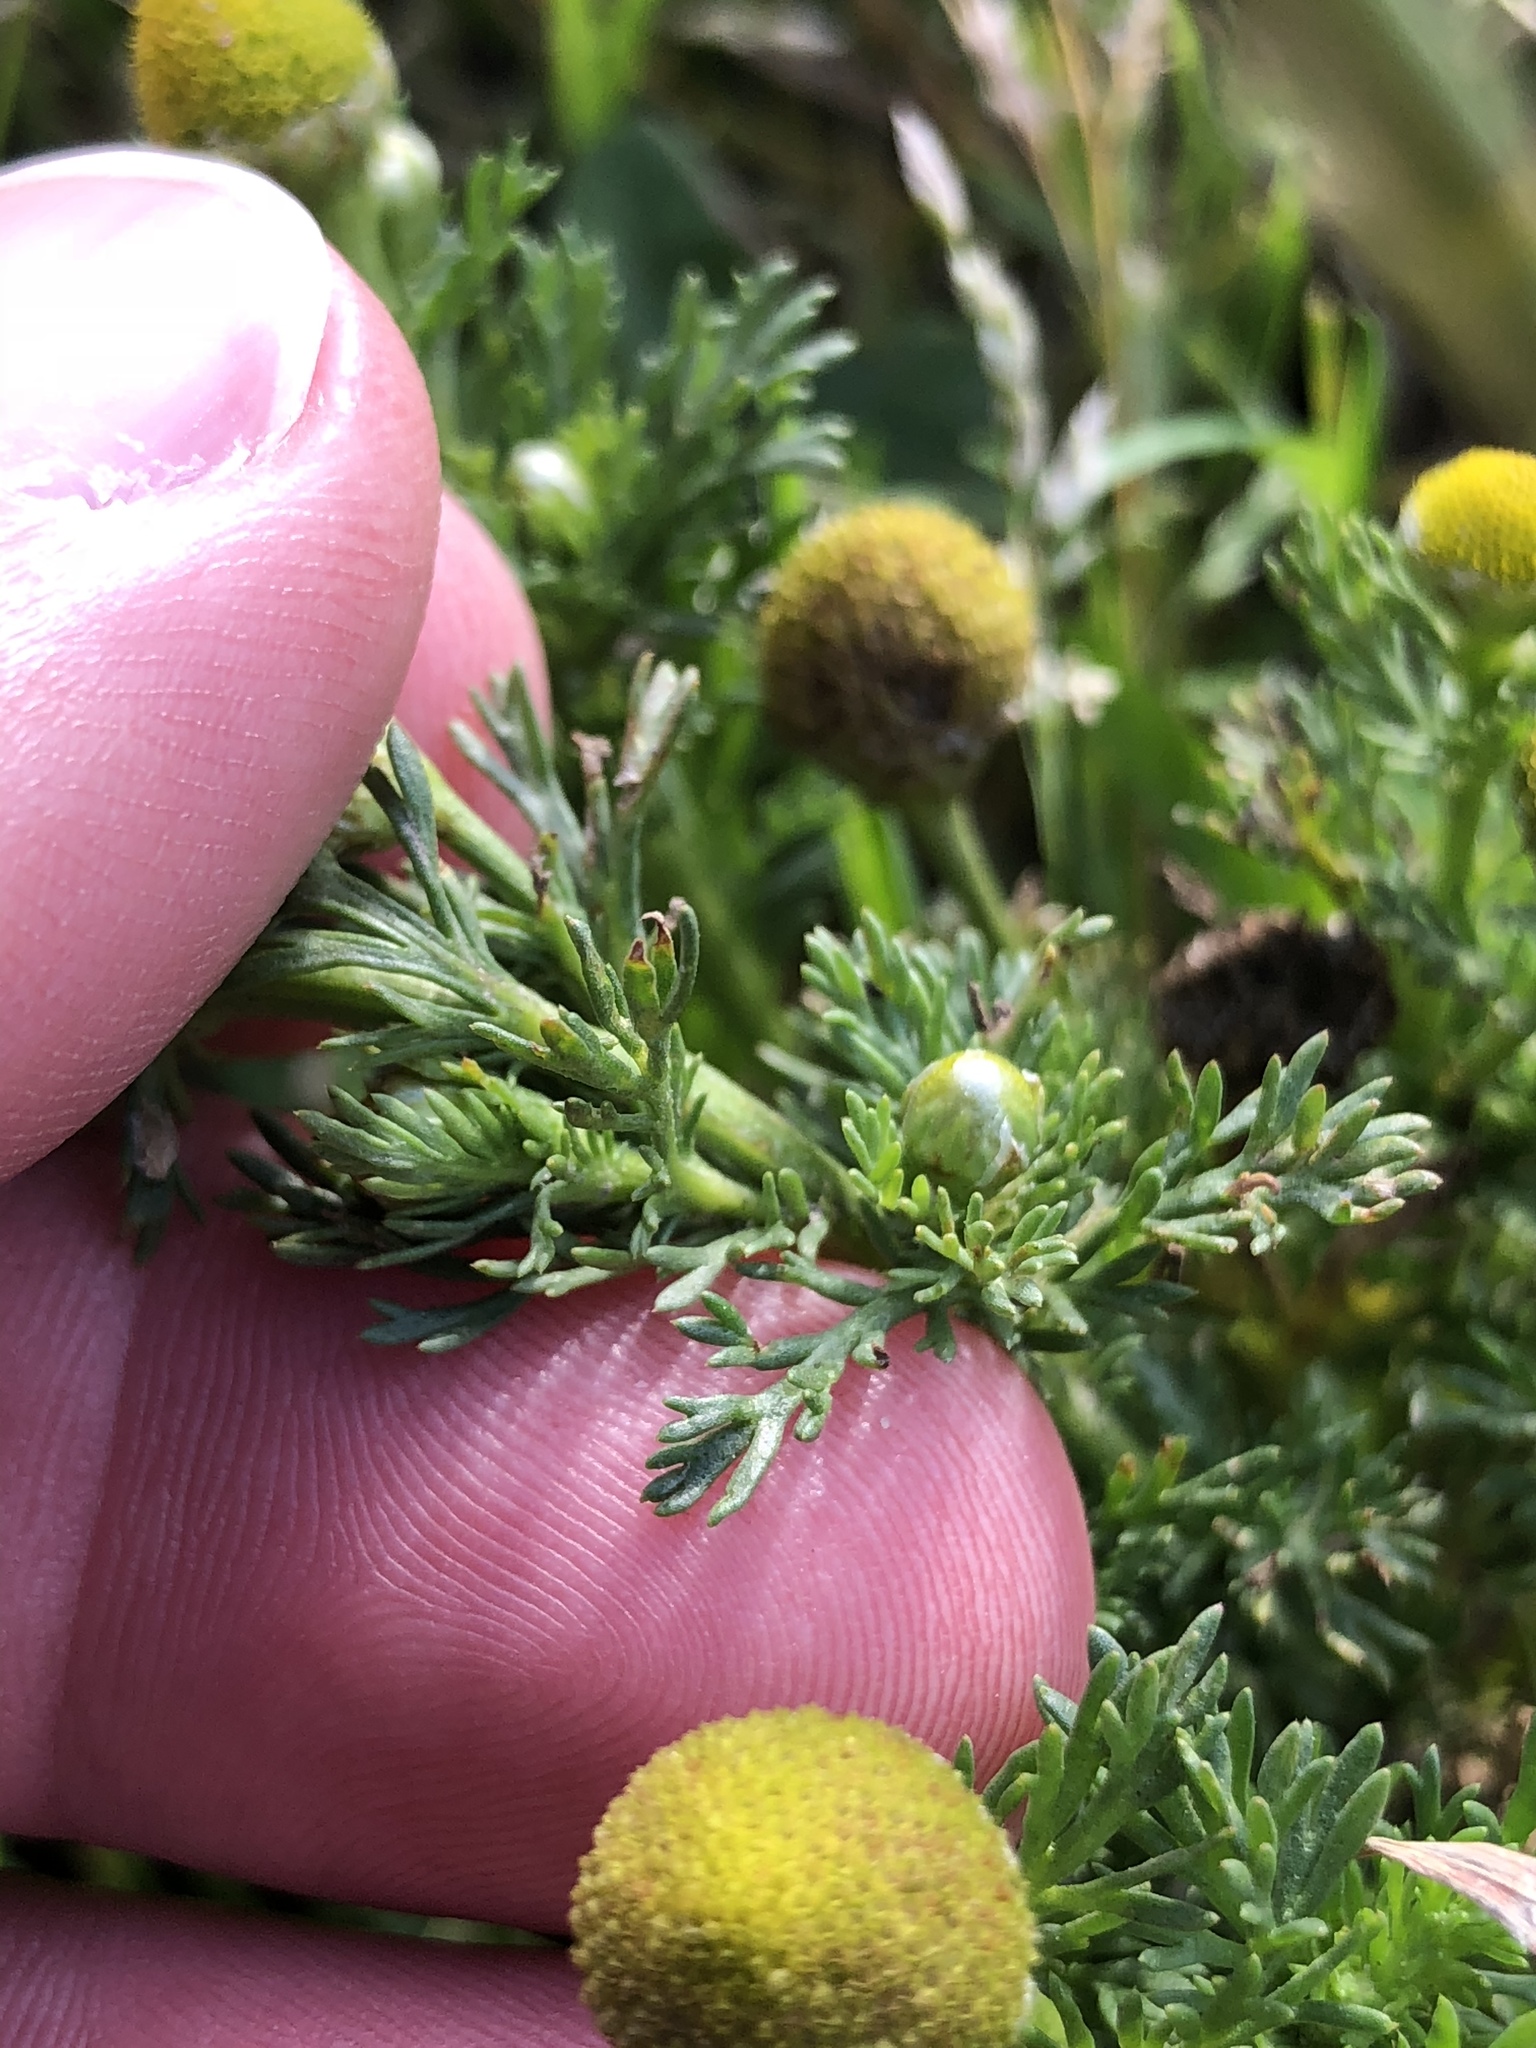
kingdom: Plantae
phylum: Tracheophyta
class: Magnoliopsida
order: Asterales
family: Asteraceae
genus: Matricaria
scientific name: Matricaria discoidea
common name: Disc mayweed
